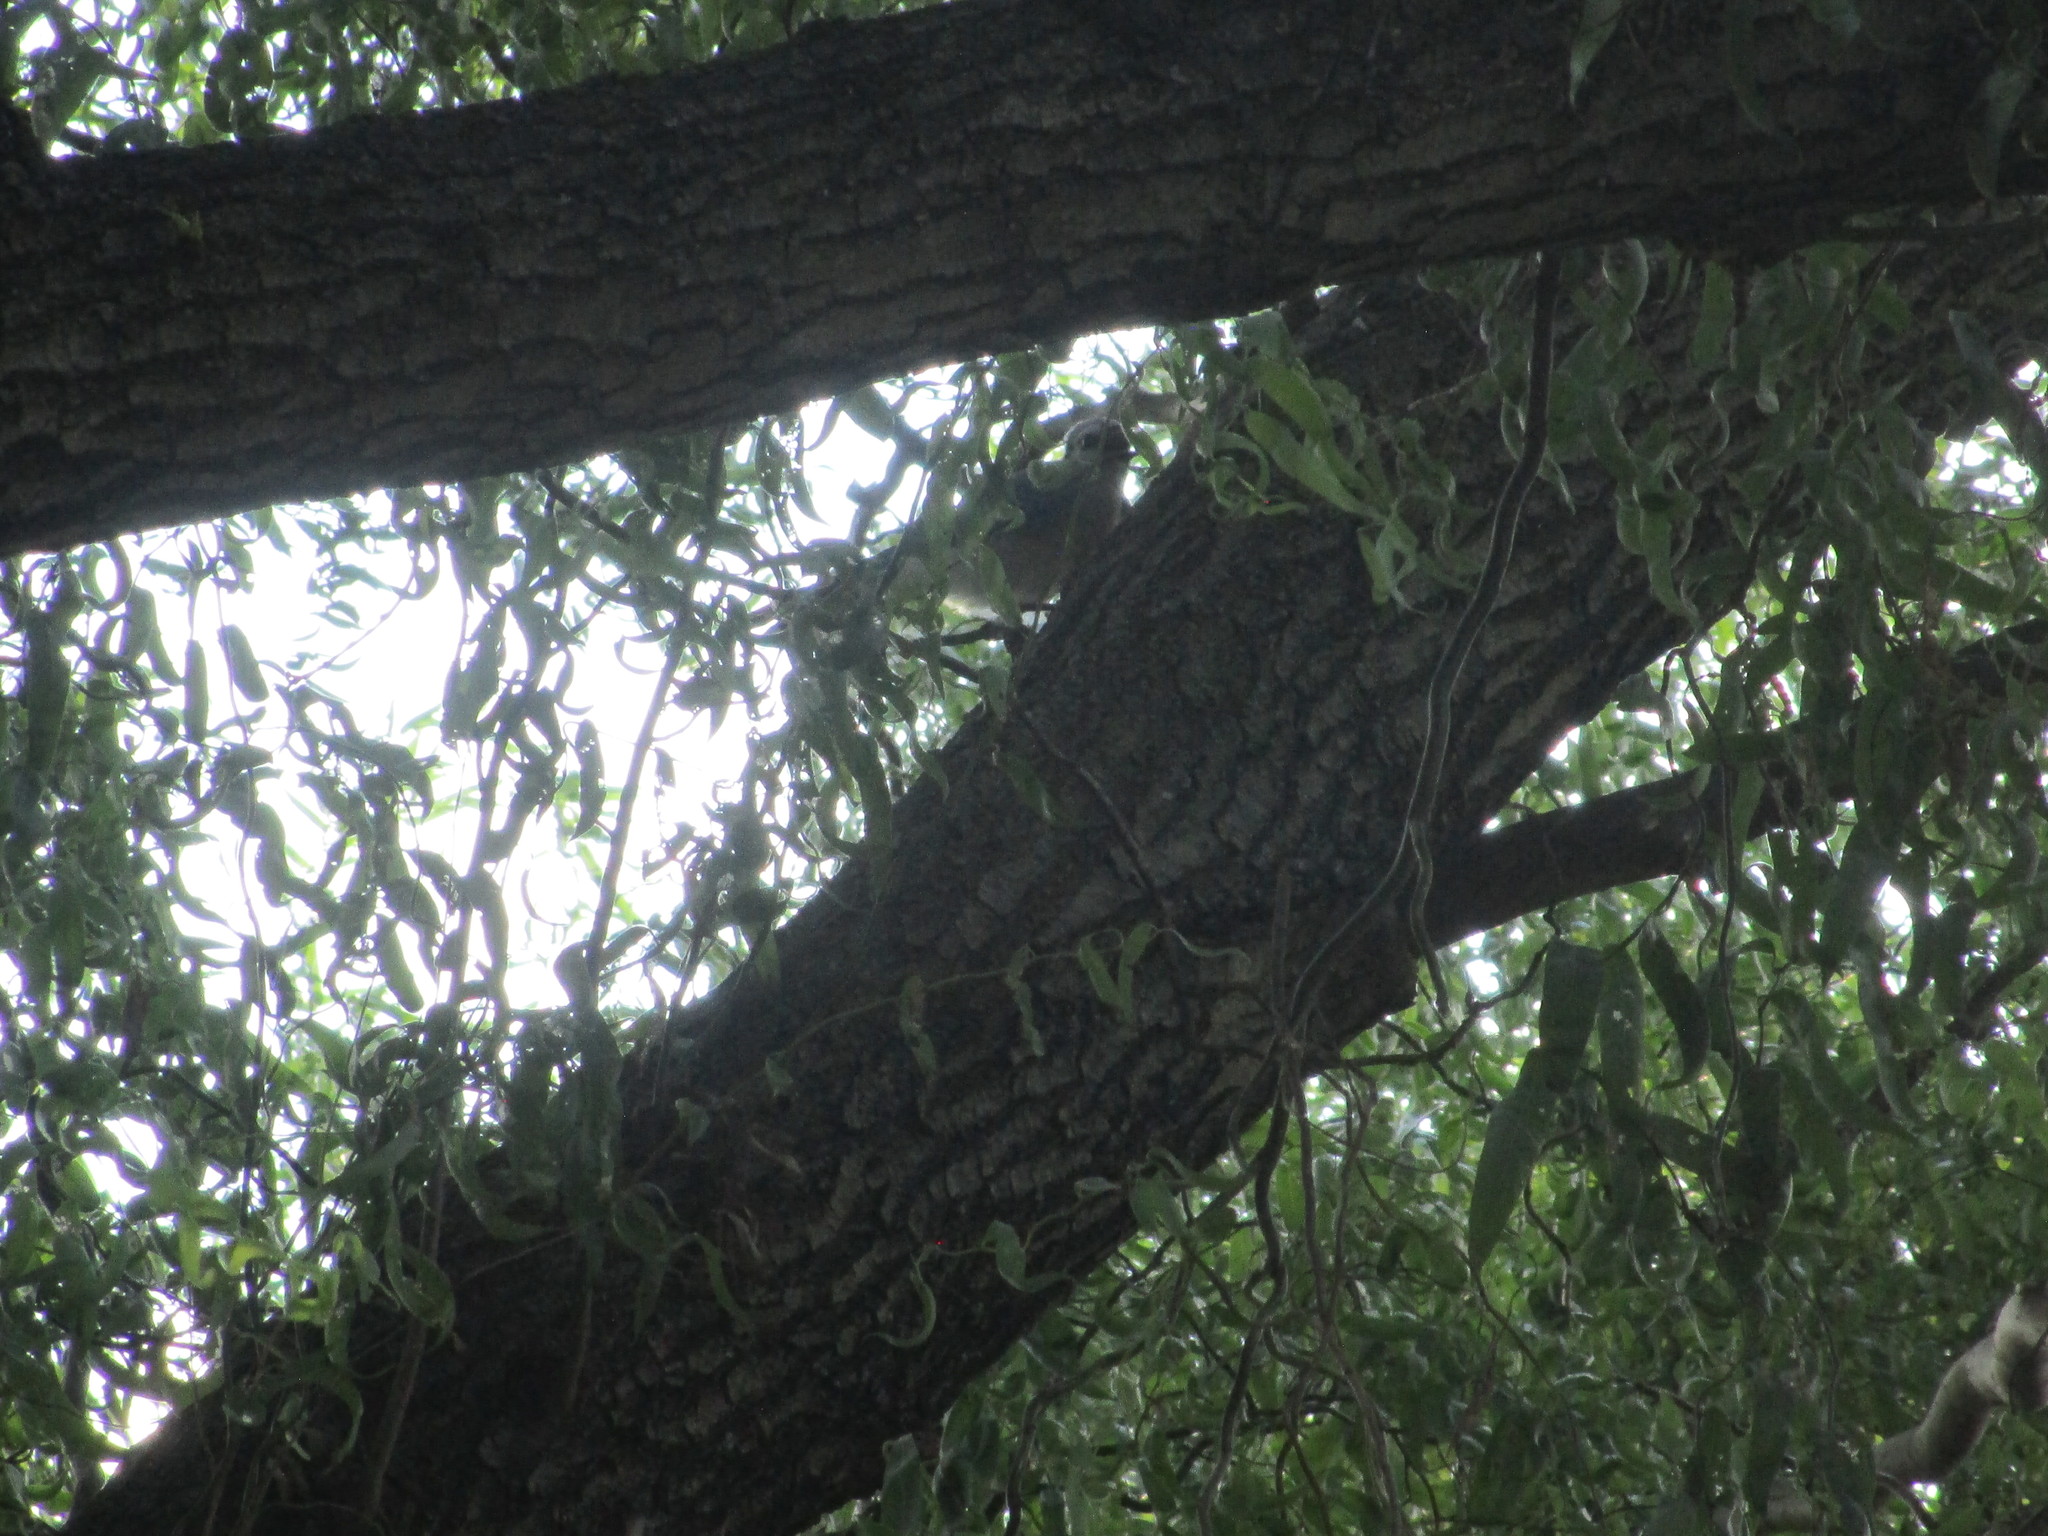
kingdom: Animalia
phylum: Chordata
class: Aves
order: Passeriformes
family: Mimidae
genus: Dumetella
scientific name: Dumetella carolinensis
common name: Gray catbird
